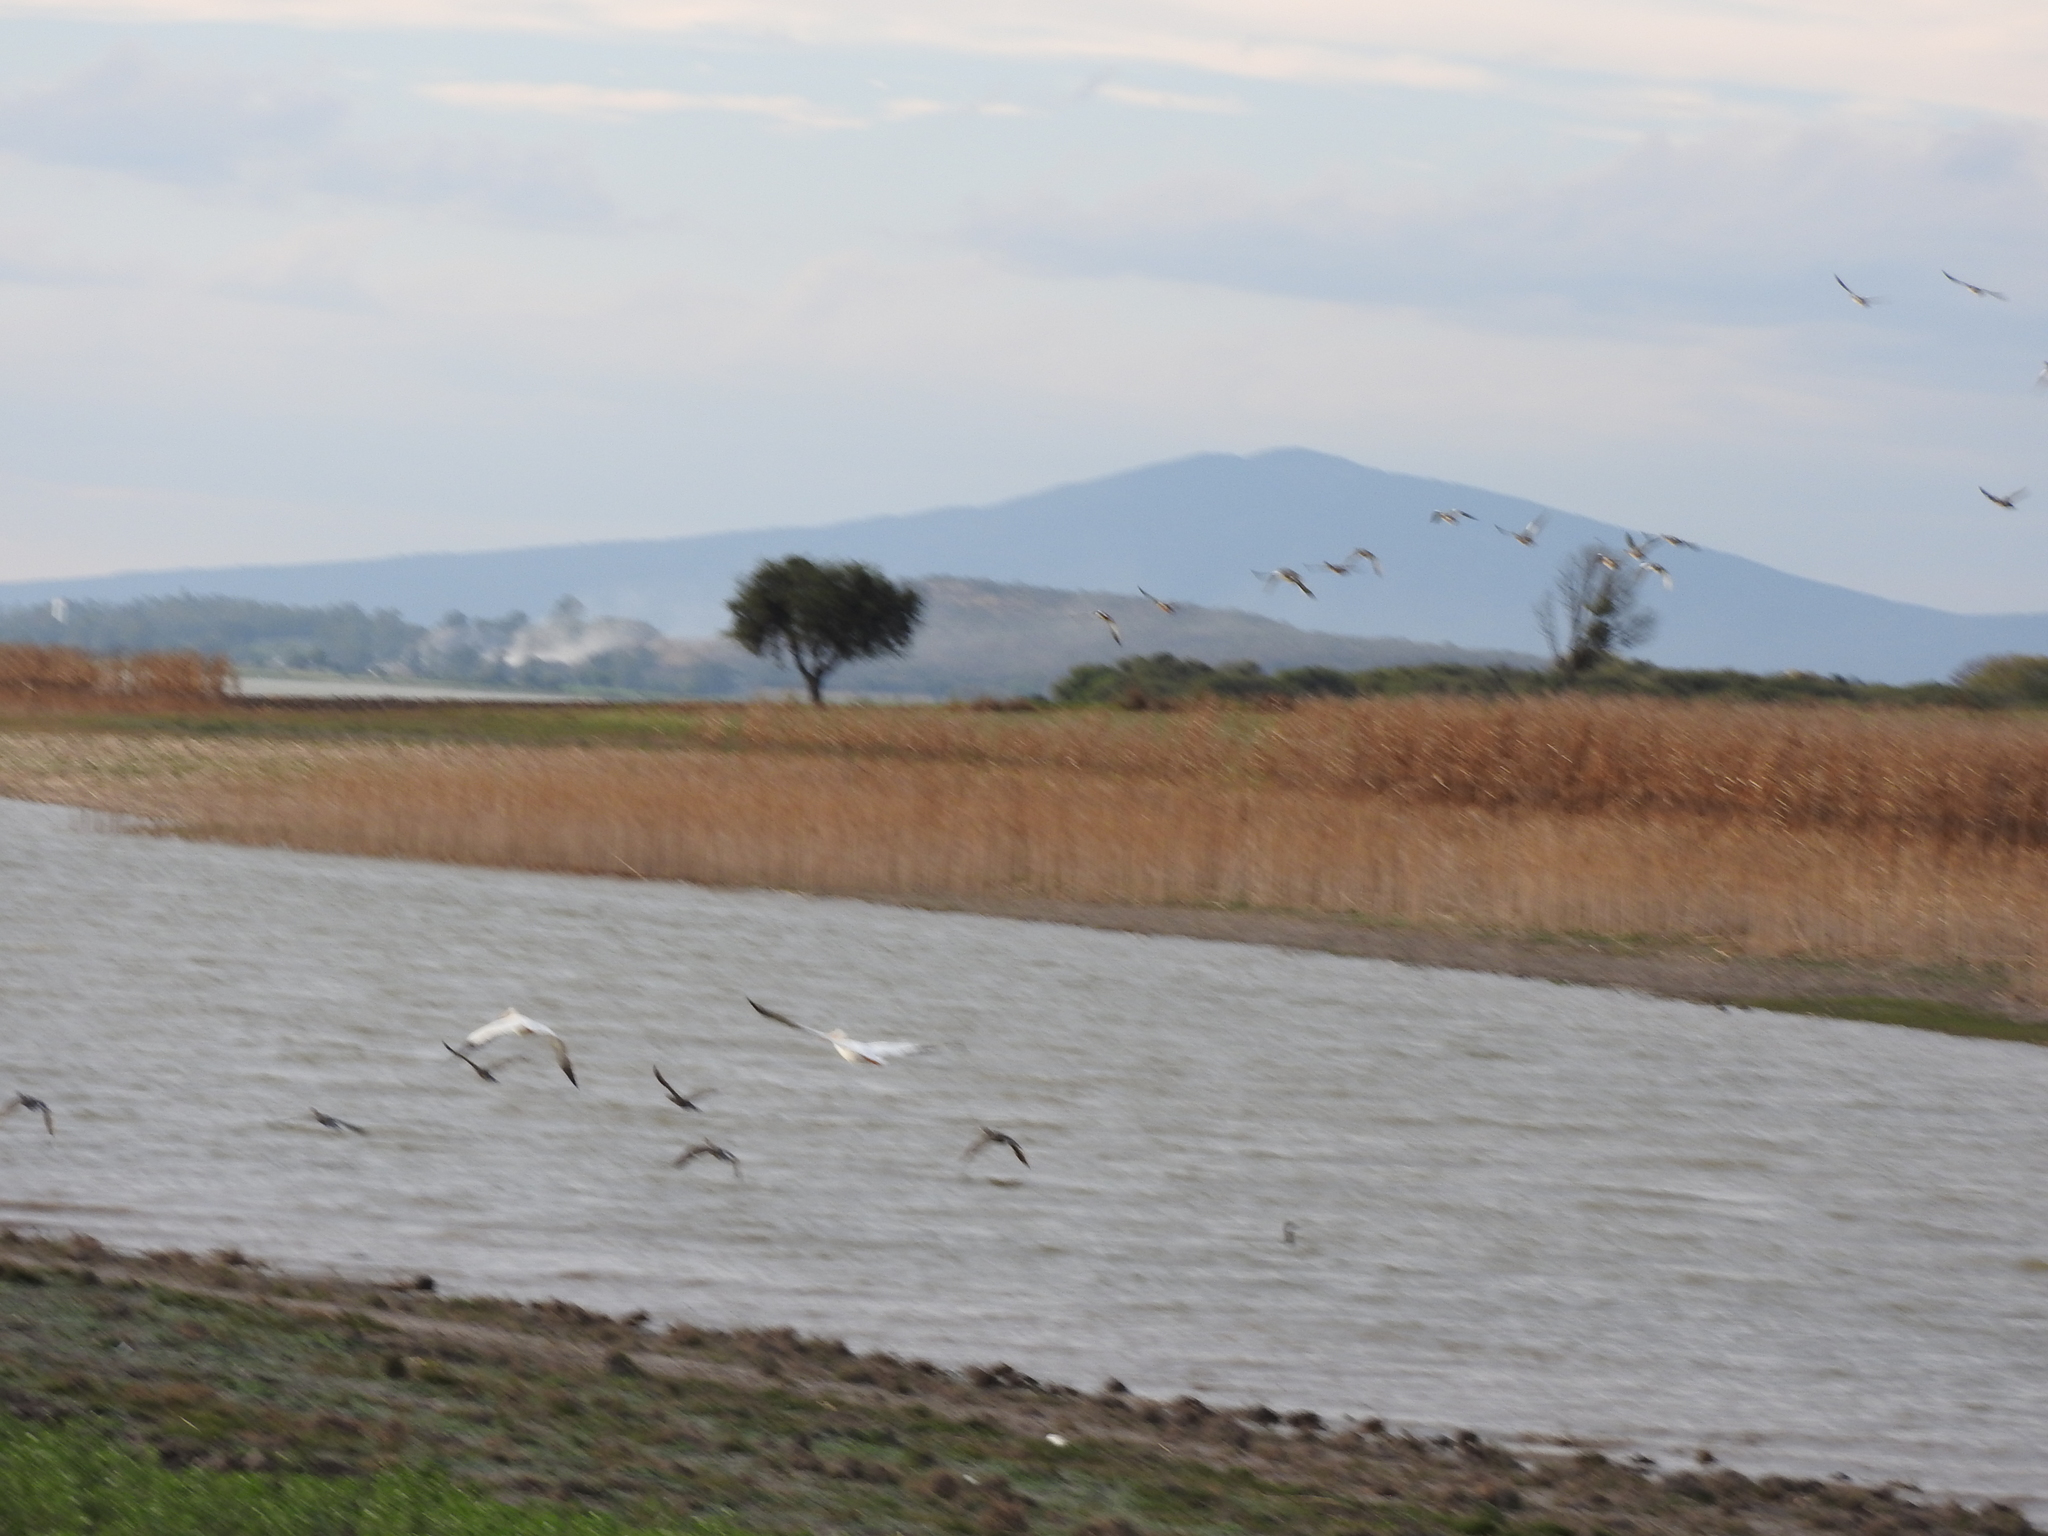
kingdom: Animalia
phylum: Chordata
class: Aves
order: Pelecaniformes
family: Pelecanidae
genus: Pelecanus
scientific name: Pelecanus erythrorhynchos
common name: American white pelican
